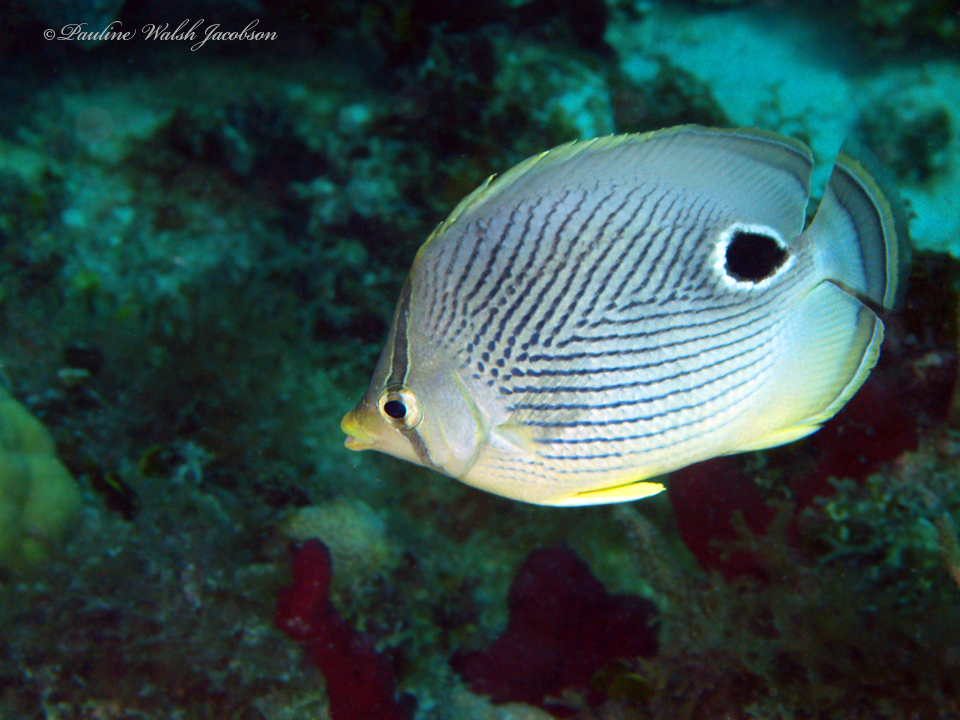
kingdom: Animalia
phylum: Chordata
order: Perciformes
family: Chaetodontidae
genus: Chaetodon
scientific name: Chaetodon capistratus
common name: Kete
